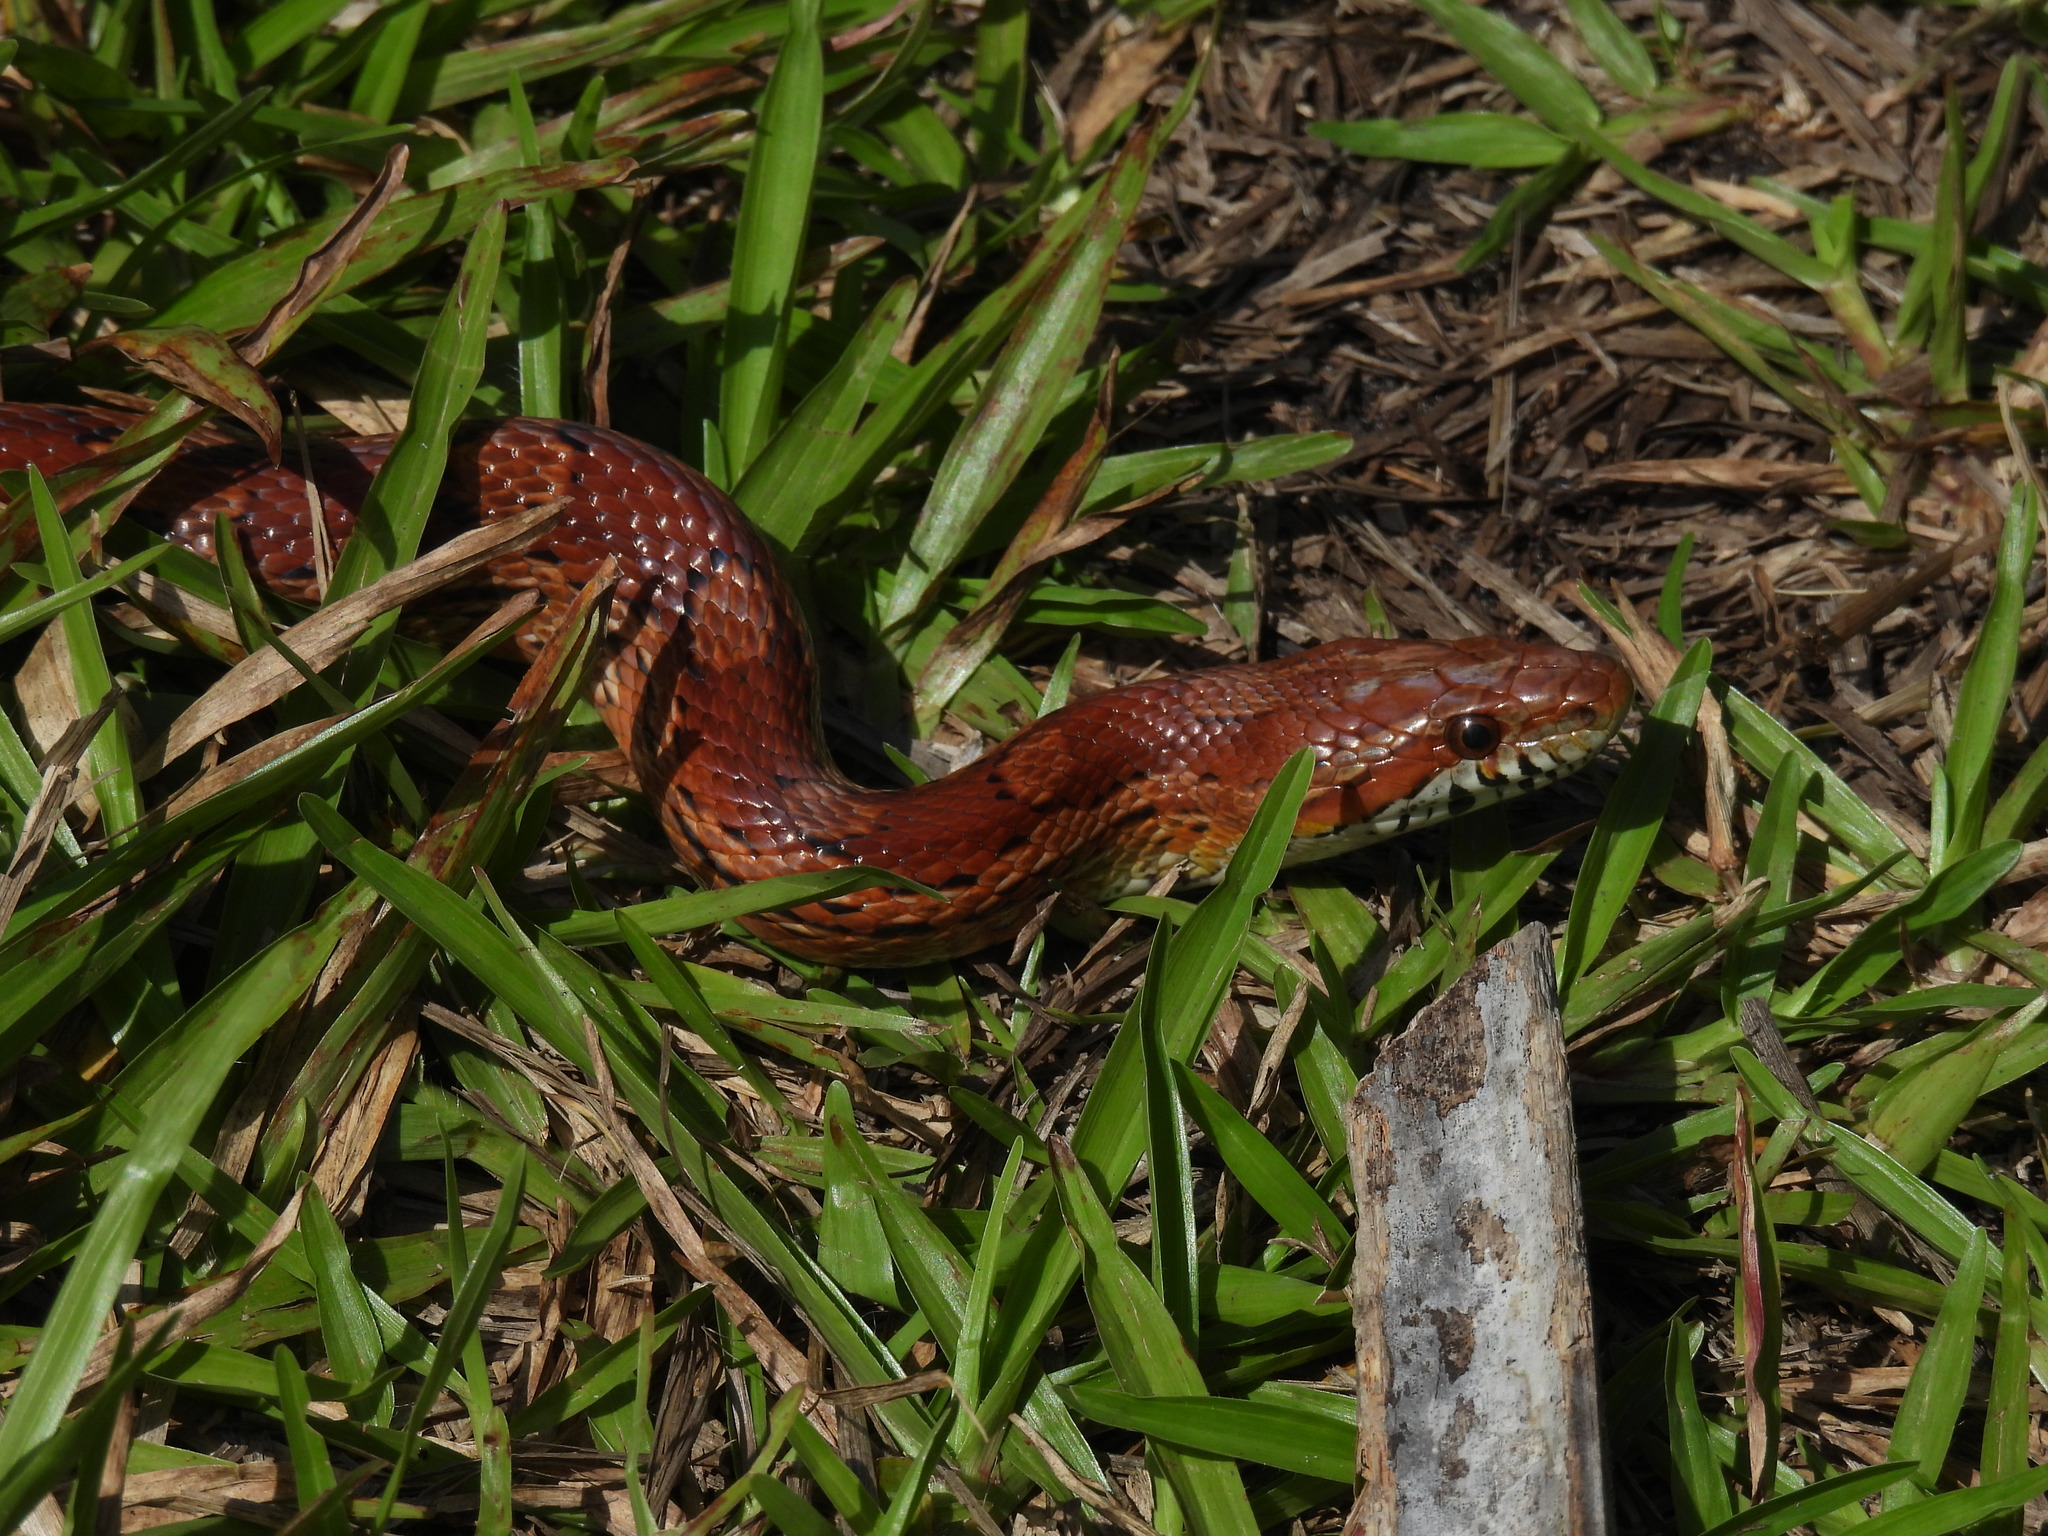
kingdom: Animalia
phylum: Chordata
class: Squamata
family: Colubridae
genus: Pantherophis
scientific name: Pantherophis guttatus
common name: Red cornsnake
